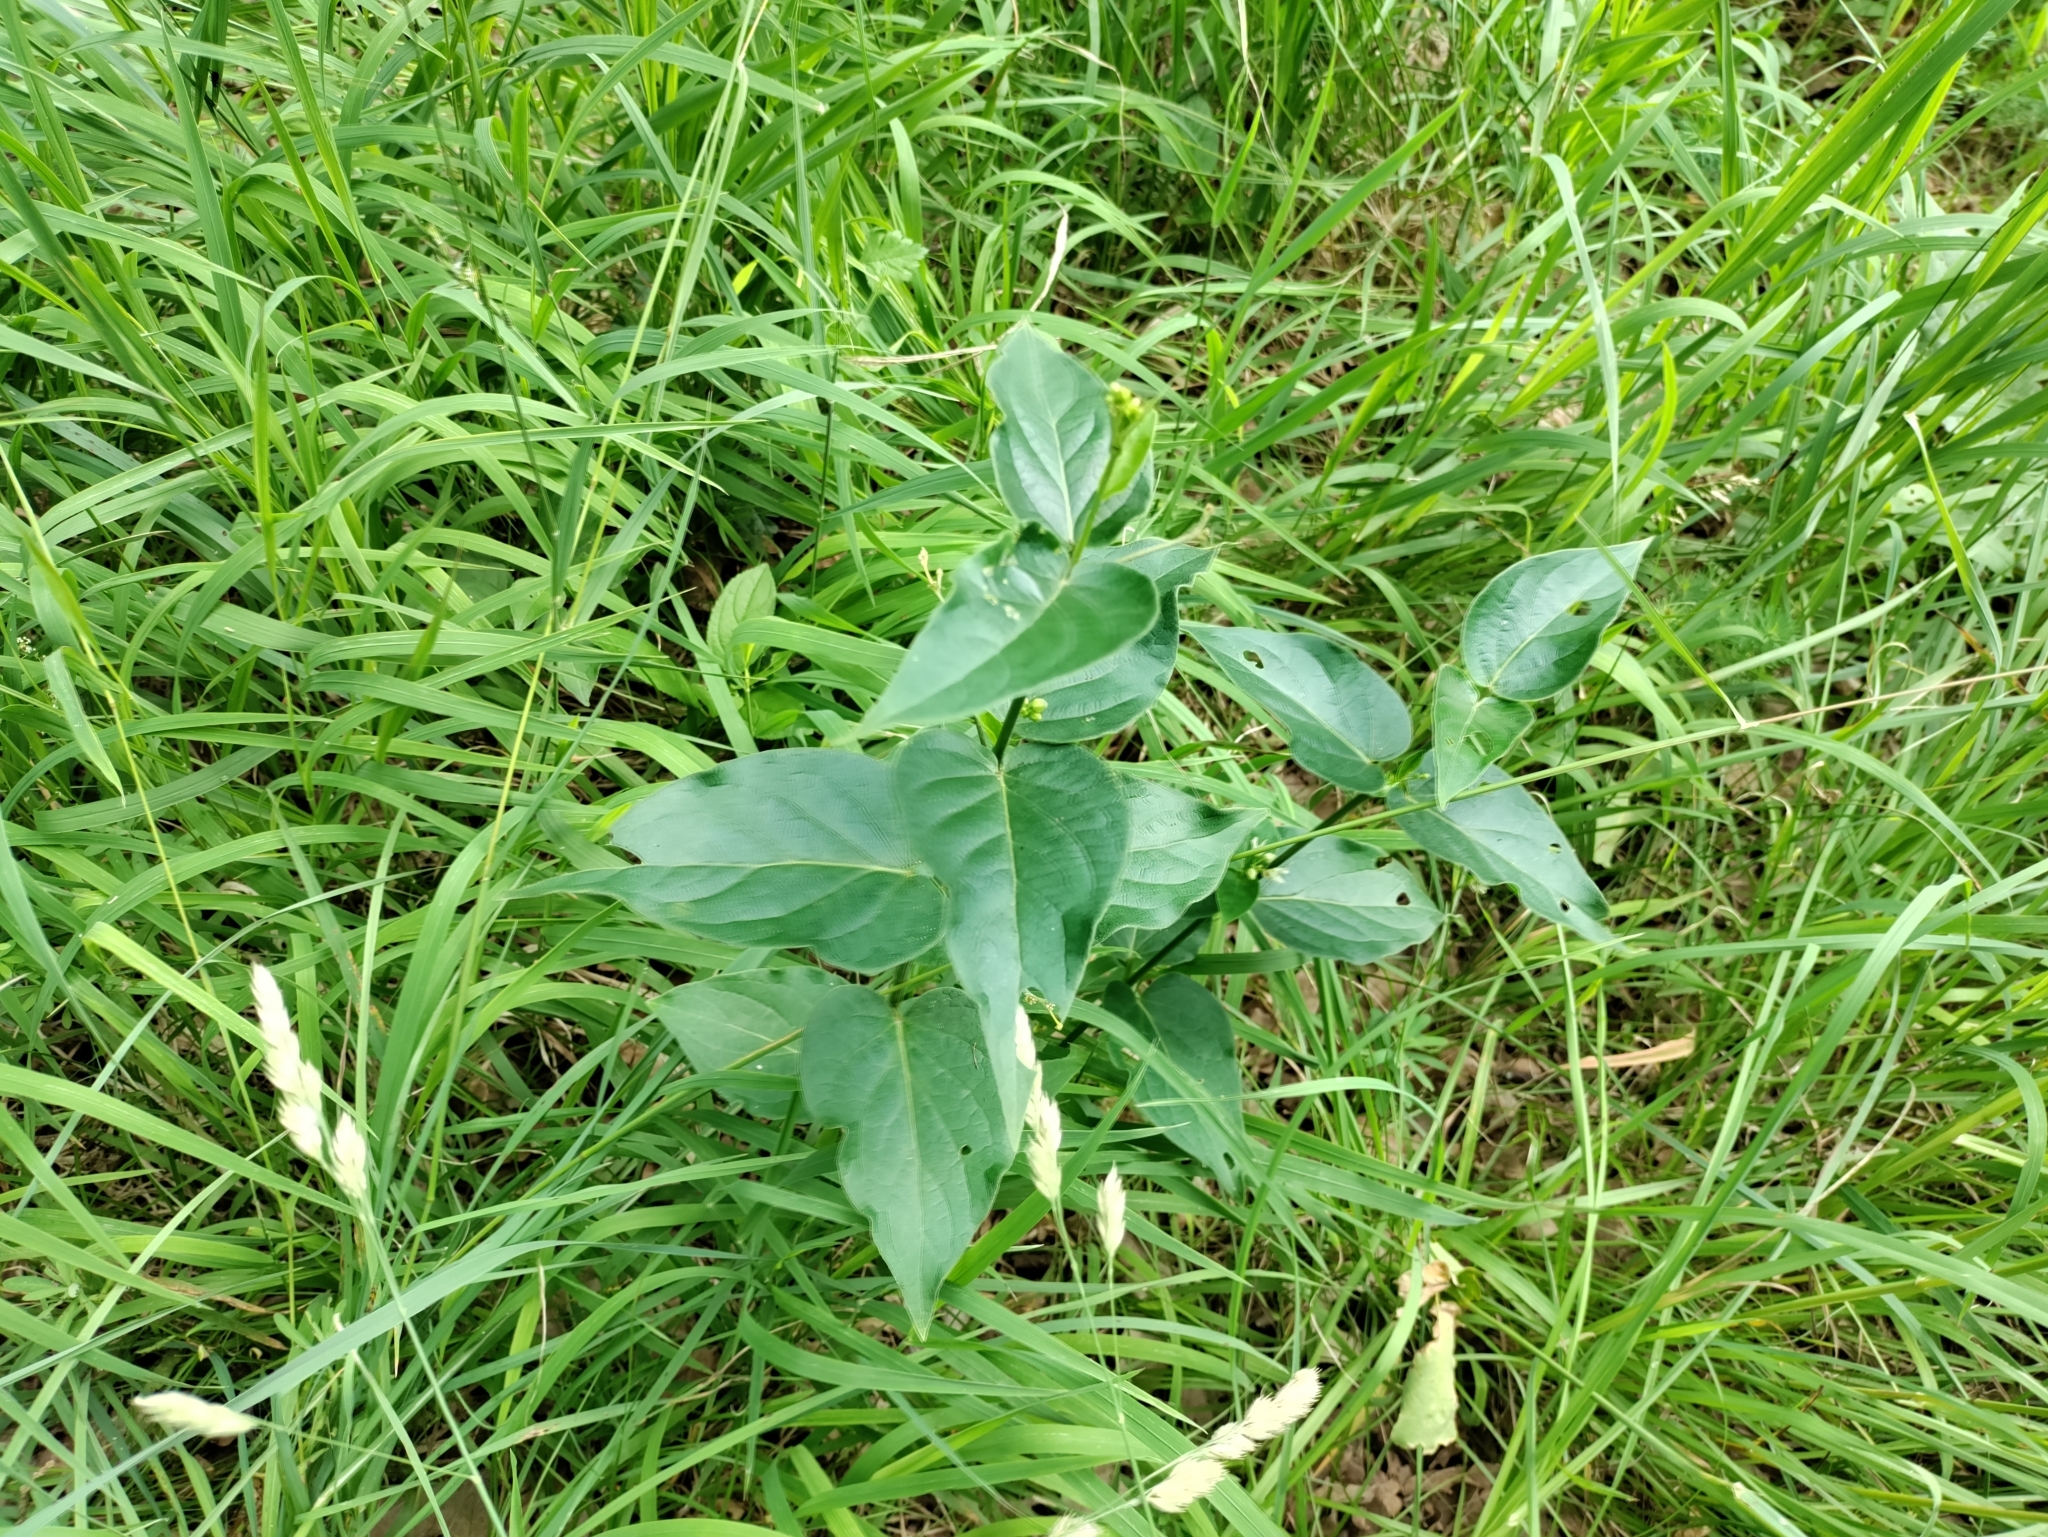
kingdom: Plantae
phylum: Tracheophyta
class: Magnoliopsida
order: Gentianales
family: Apocynaceae
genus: Vincetoxicum
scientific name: Vincetoxicum hirundinaria
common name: White swallowwort
